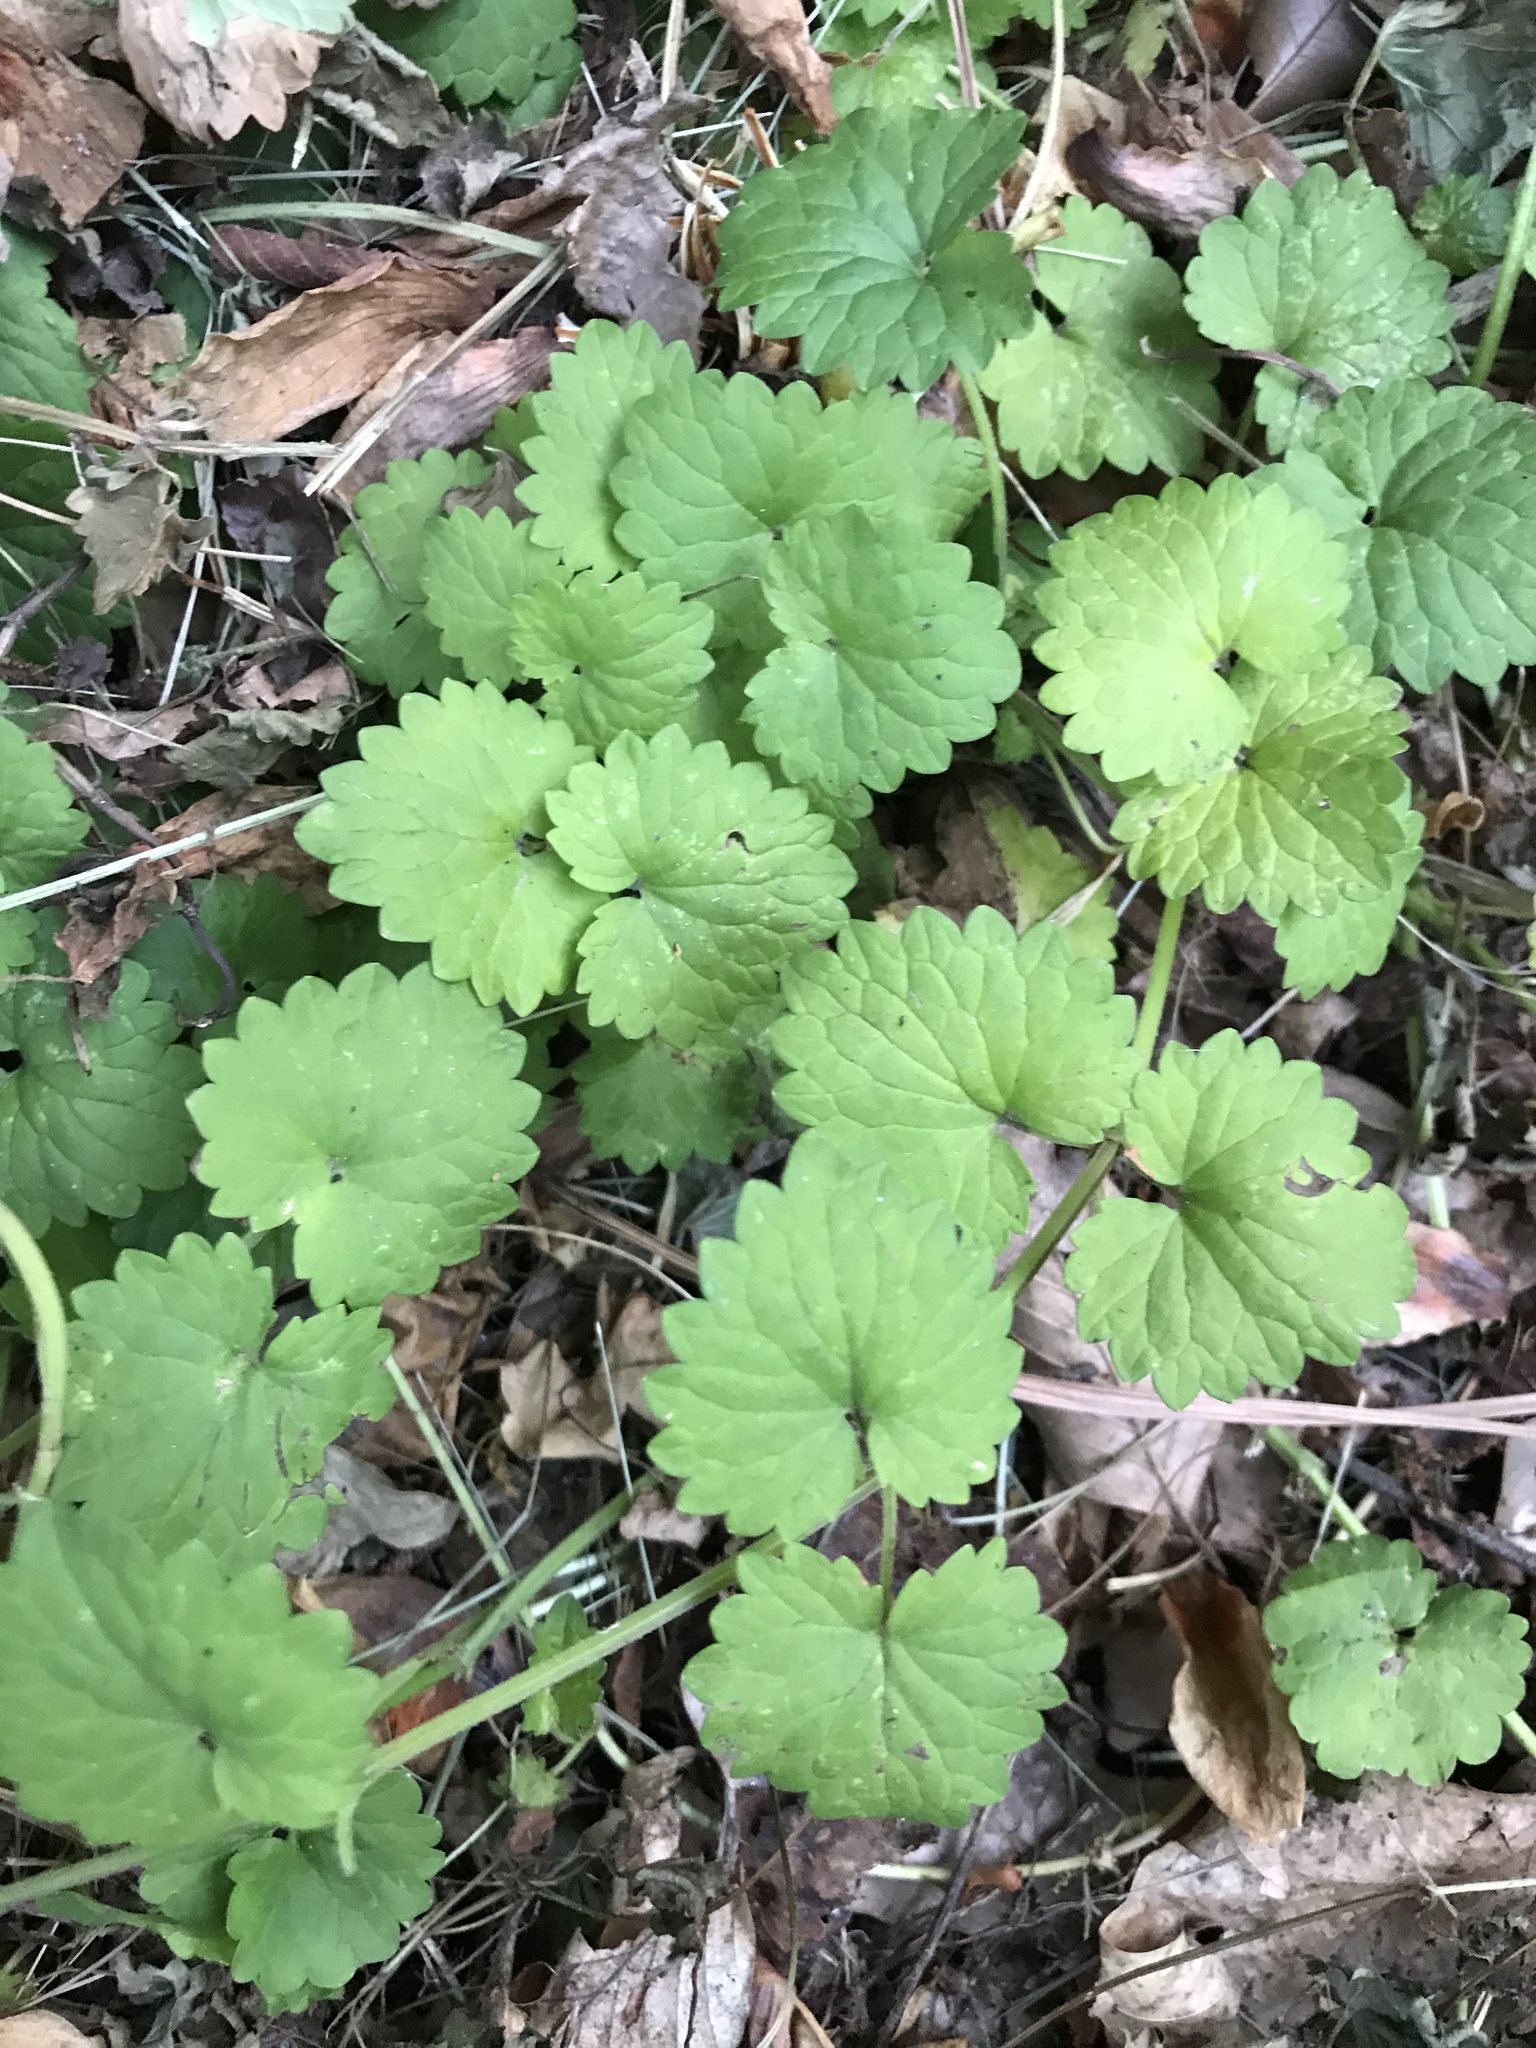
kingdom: Plantae
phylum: Tracheophyta
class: Magnoliopsida
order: Lamiales
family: Lamiaceae
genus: Glechoma
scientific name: Glechoma hederacea
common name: Ground ivy
